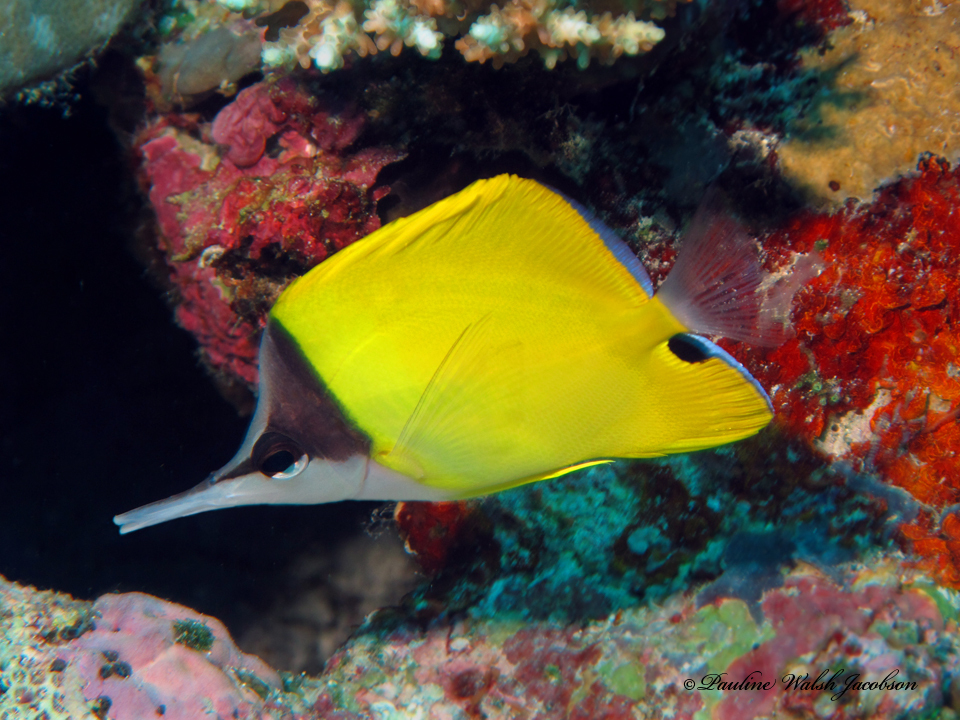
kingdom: Animalia
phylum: Chordata
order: Perciformes
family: Chaetodontidae
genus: Forcipiger
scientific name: Forcipiger flavissimus
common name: Forcepsfish
